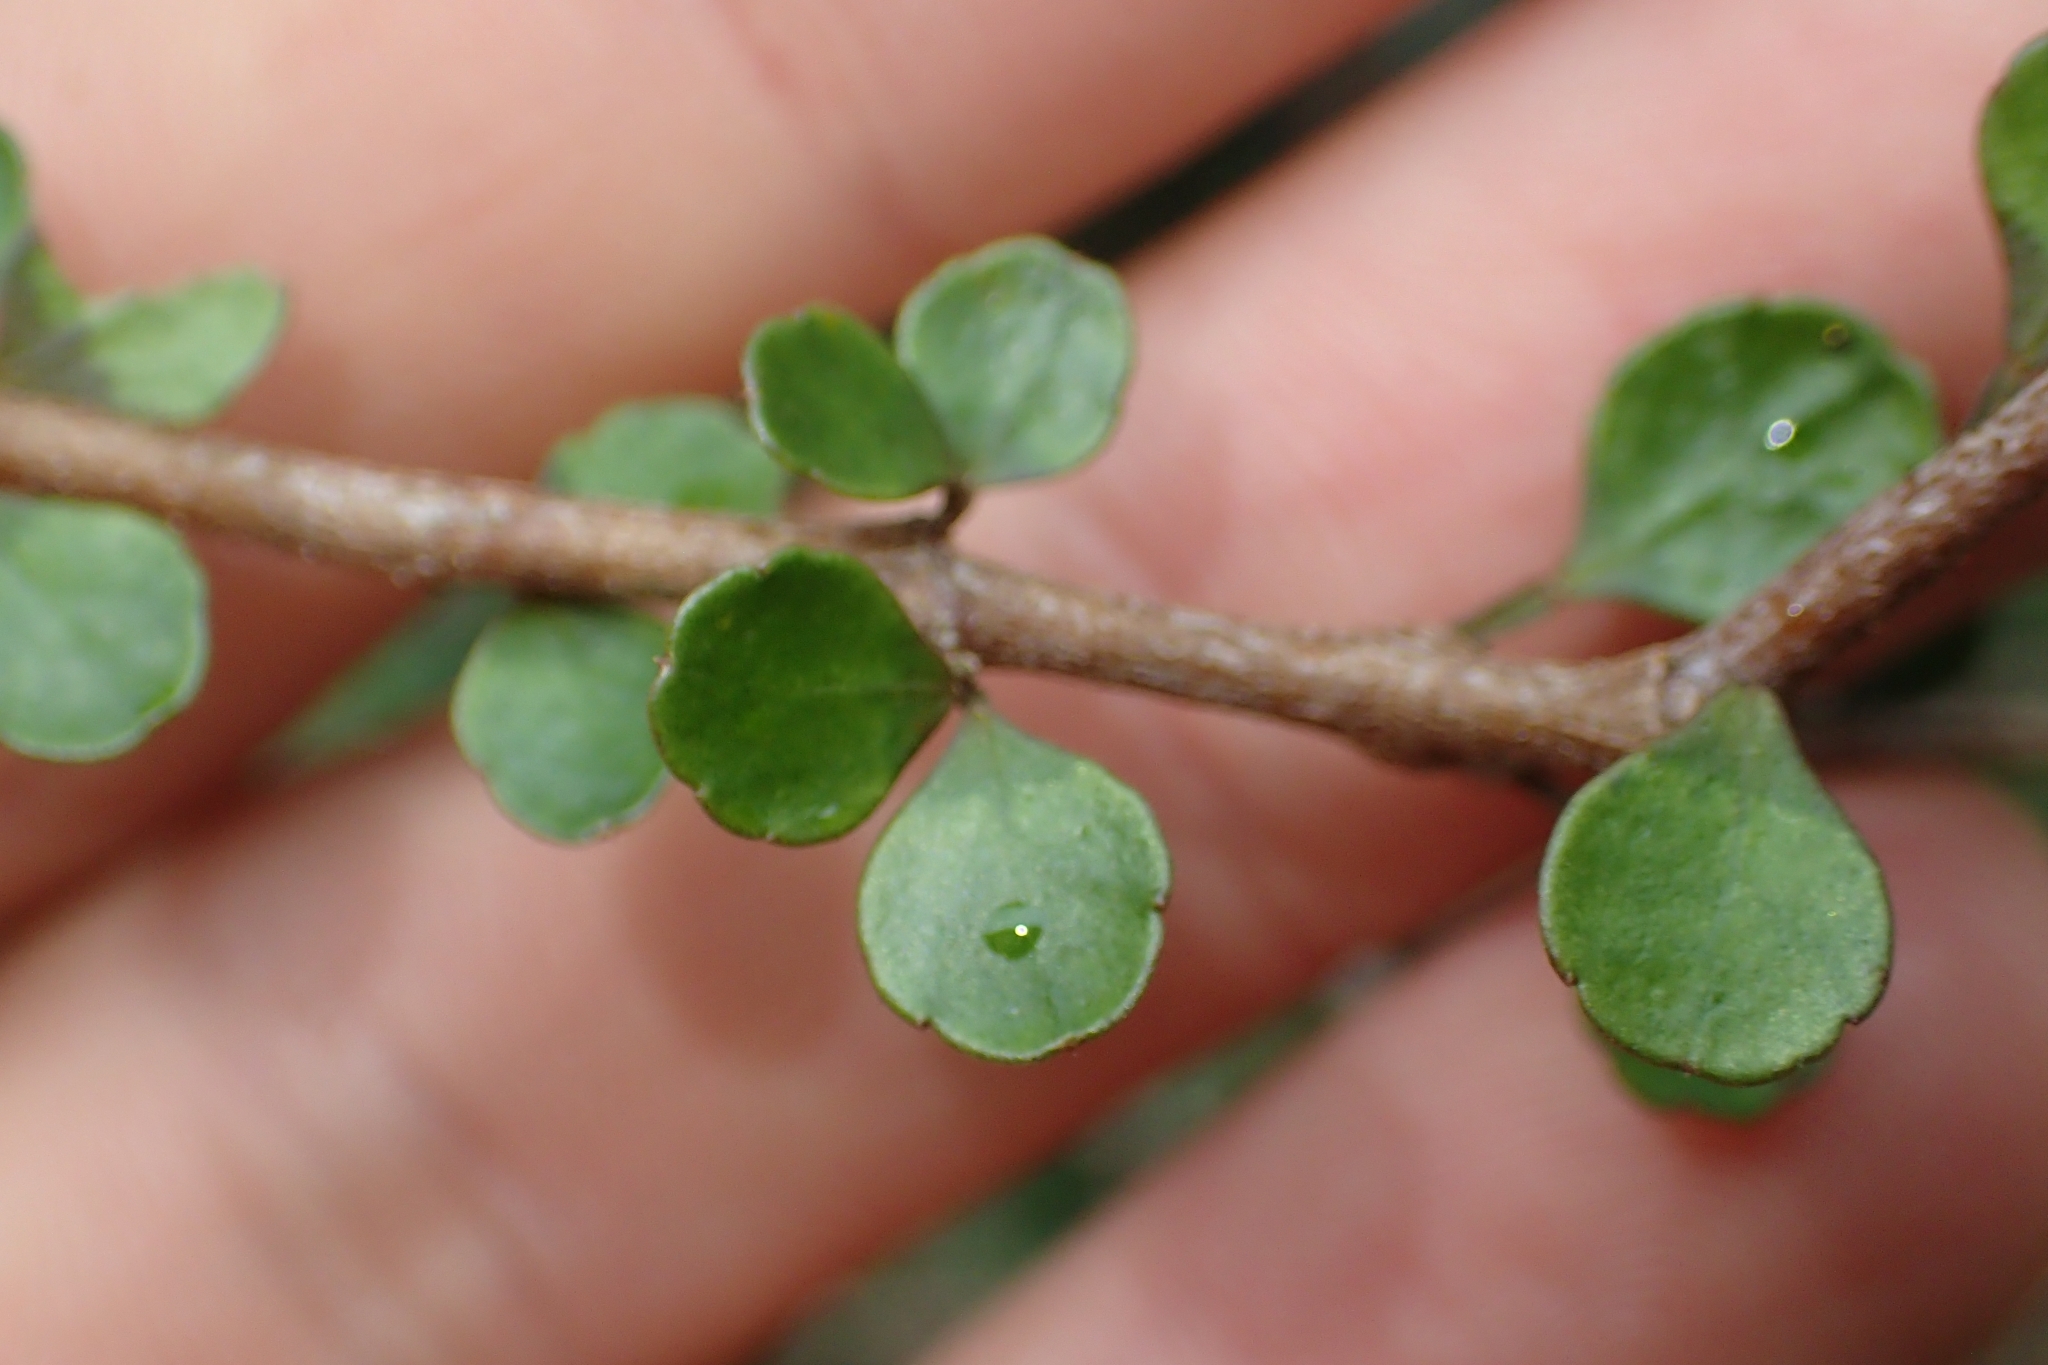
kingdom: Plantae
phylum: Tracheophyta
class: Magnoliopsida
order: Apiales
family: Araliaceae
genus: Raukaua
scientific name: Raukaua anomalus
